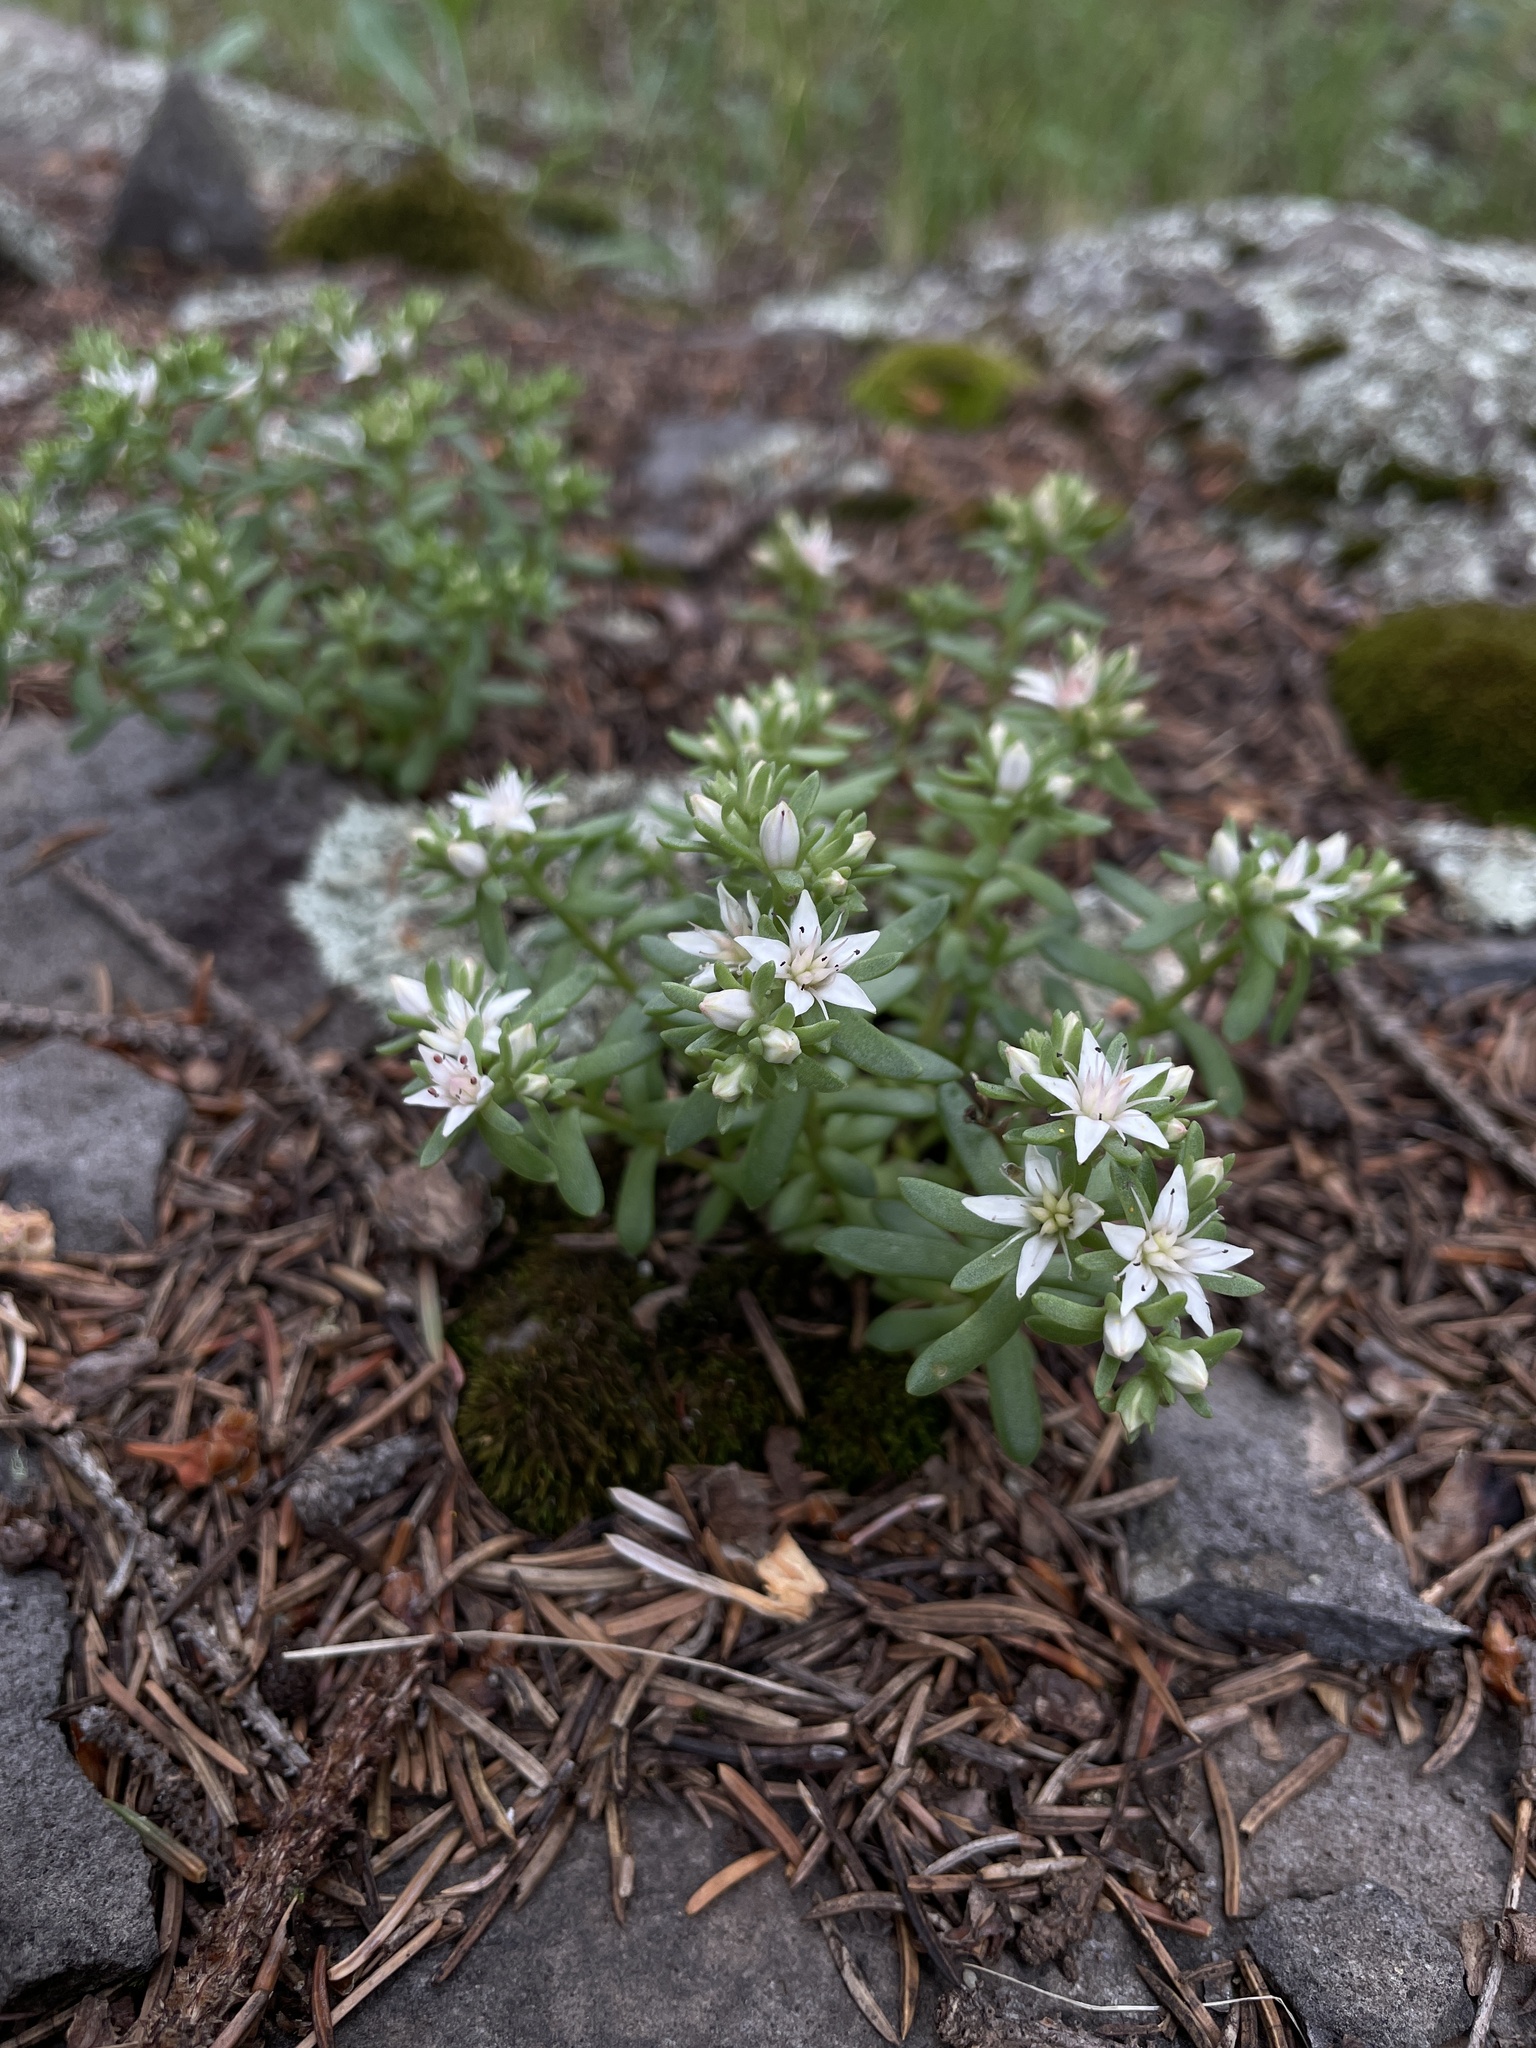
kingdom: Plantae
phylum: Tracheophyta
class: Magnoliopsida
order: Saxifragales
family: Crassulaceae
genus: Sedum
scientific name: Sedum cockerellii
